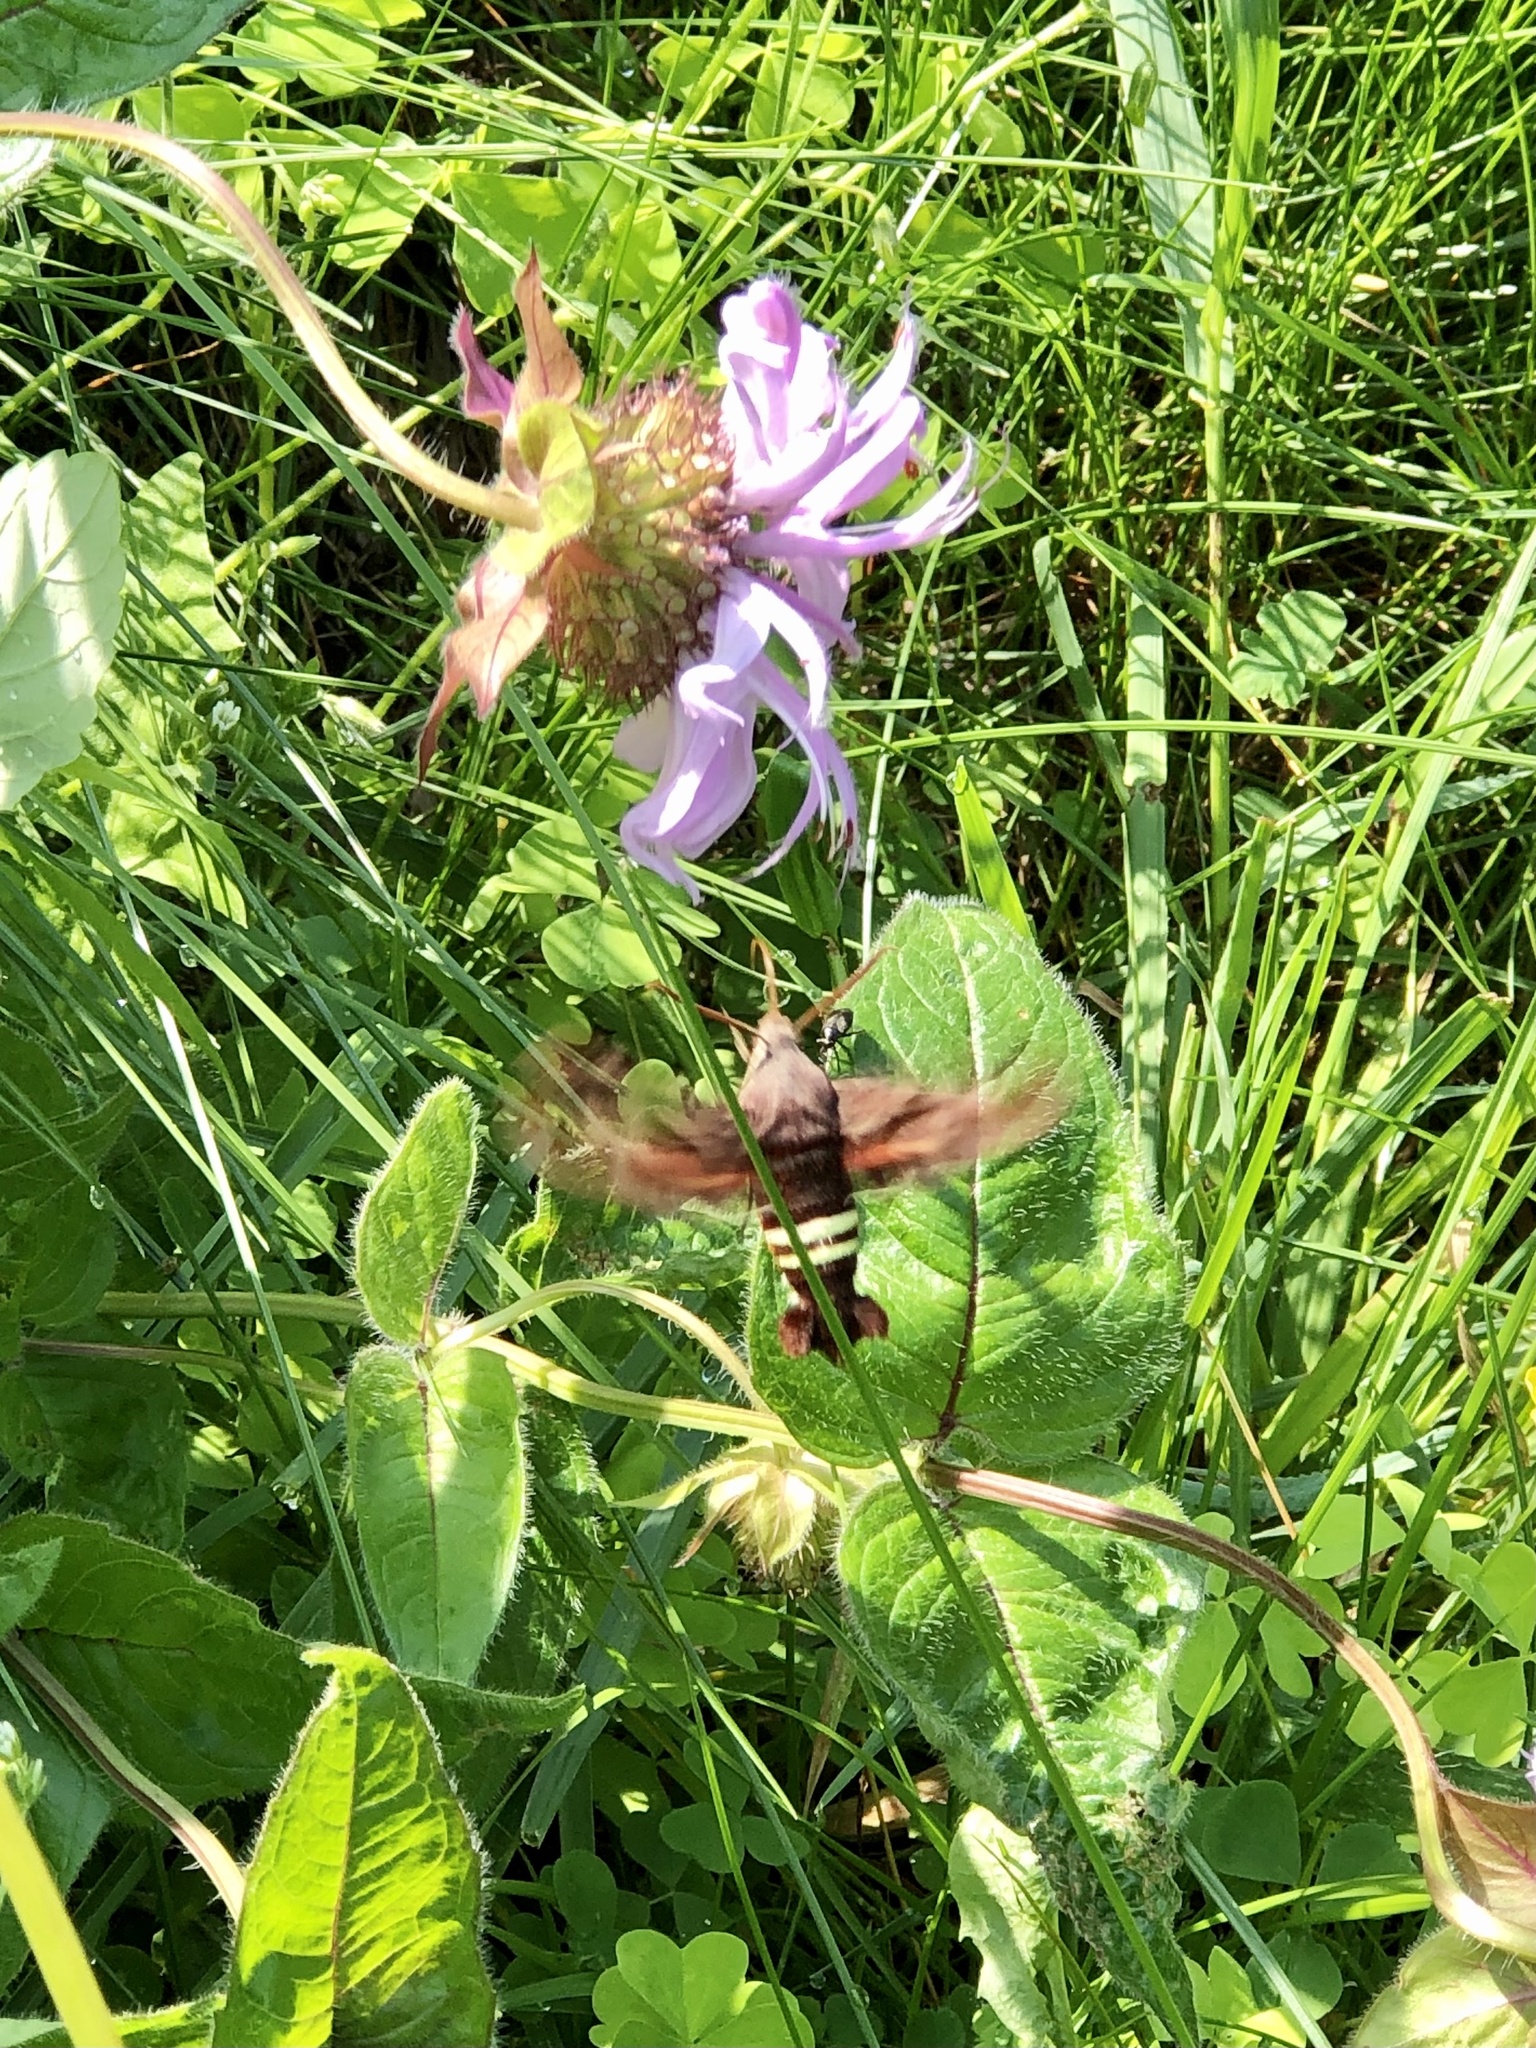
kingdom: Animalia
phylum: Arthropoda
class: Insecta
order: Lepidoptera
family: Sphingidae
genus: Amphion
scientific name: Amphion floridensis
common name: Nessus sphinx
